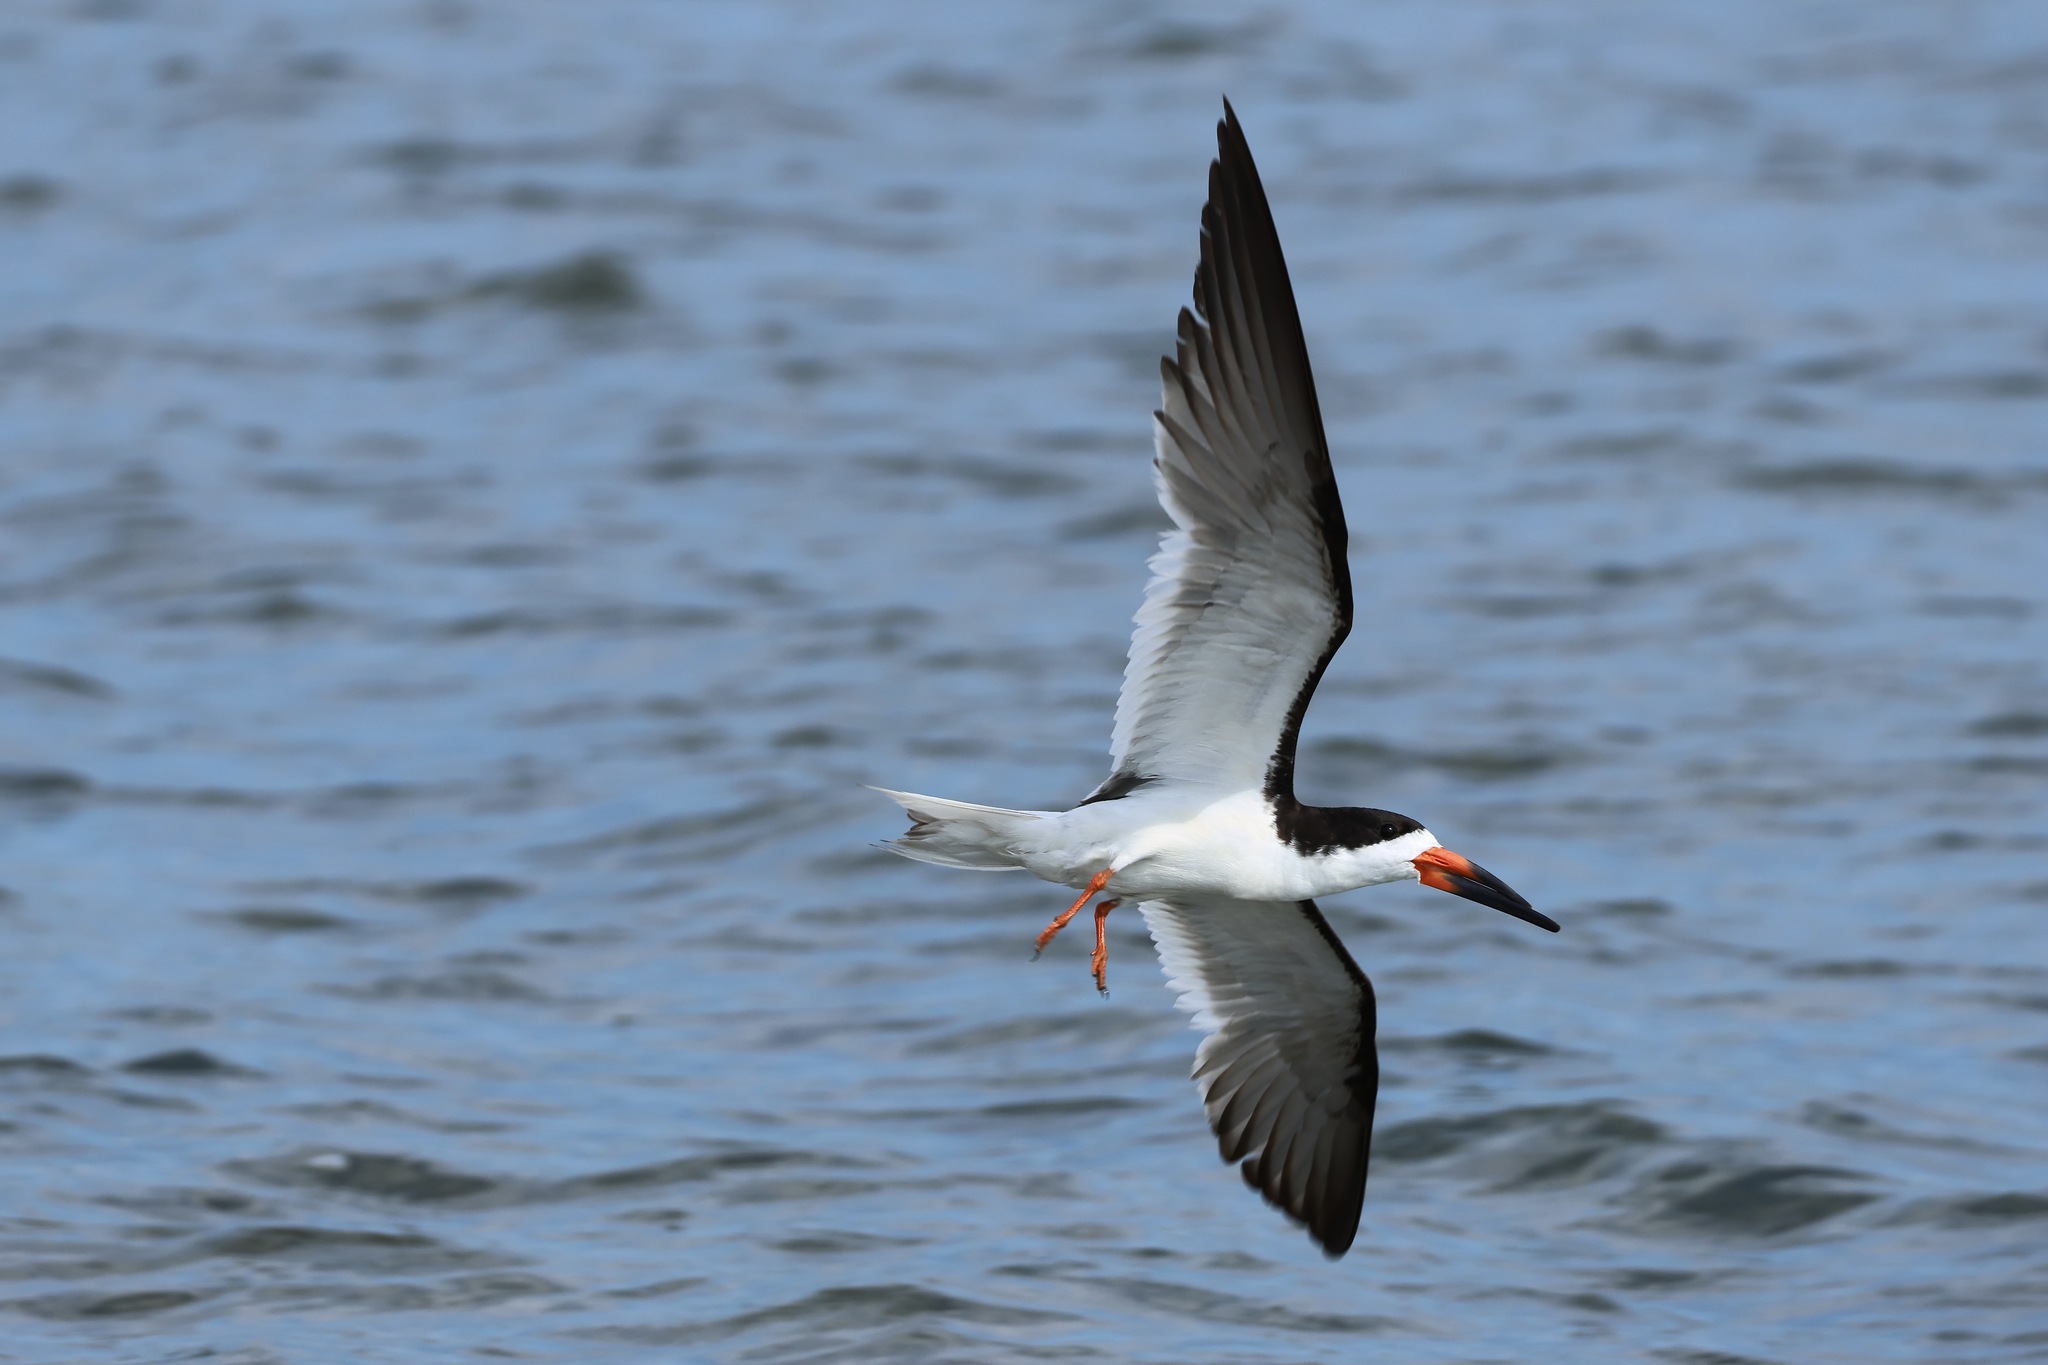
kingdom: Animalia
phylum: Chordata
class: Aves
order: Charadriiformes
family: Laridae
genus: Rynchops
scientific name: Rynchops niger
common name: Black skimmer
